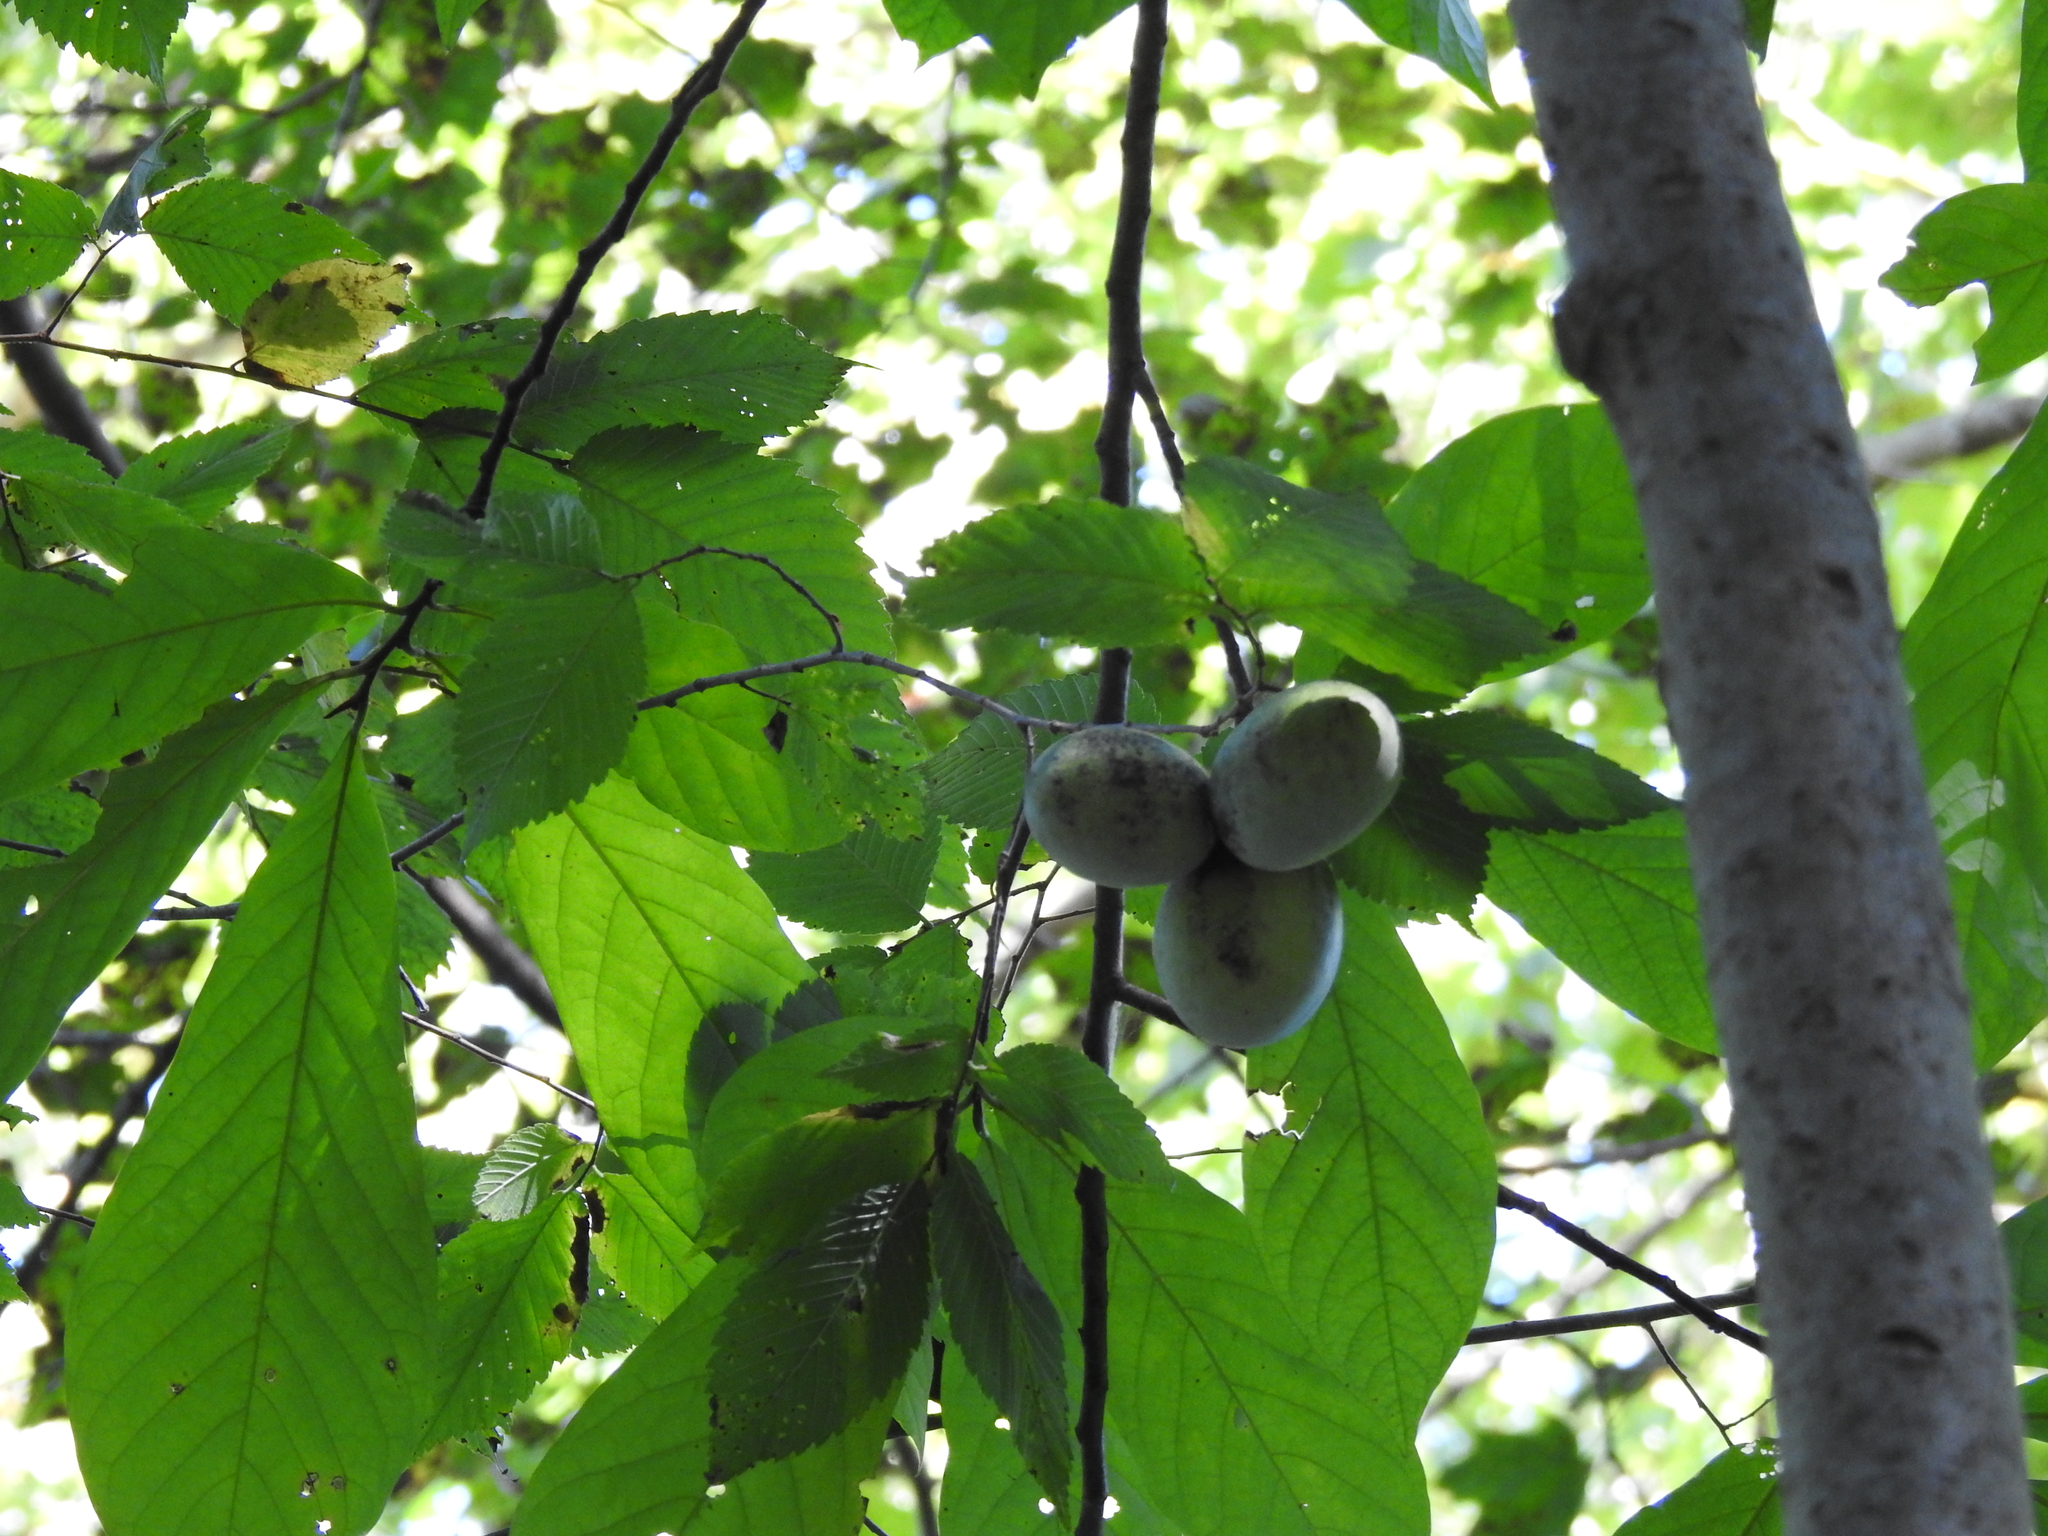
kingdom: Plantae
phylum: Tracheophyta
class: Magnoliopsida
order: Magnoliales
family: Annonaceae
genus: Asimina
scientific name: Asimina triloba
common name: Dog-banana
